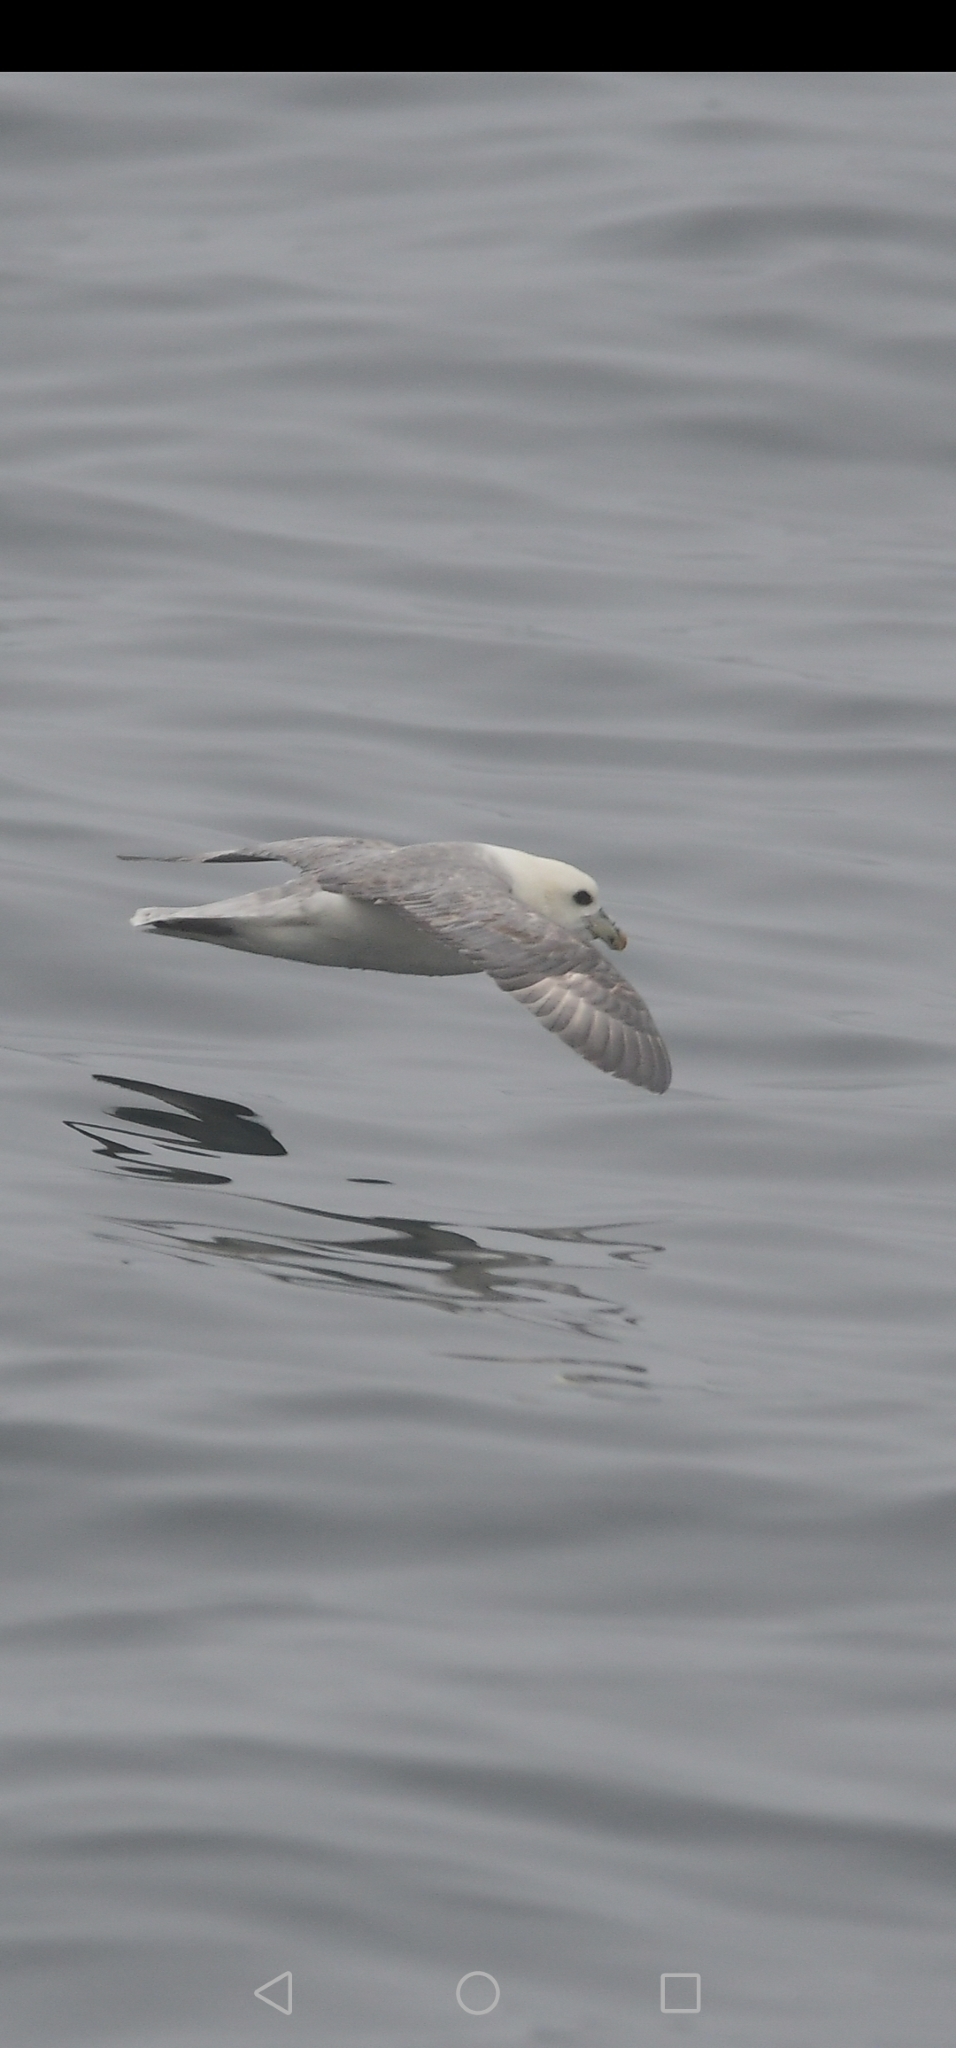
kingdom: Animalia
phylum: Chordata
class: Aves
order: Procellariiformes
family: Procellariidae
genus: Fulmarus
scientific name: Fulmarus glacialis
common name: Northern fulmar
